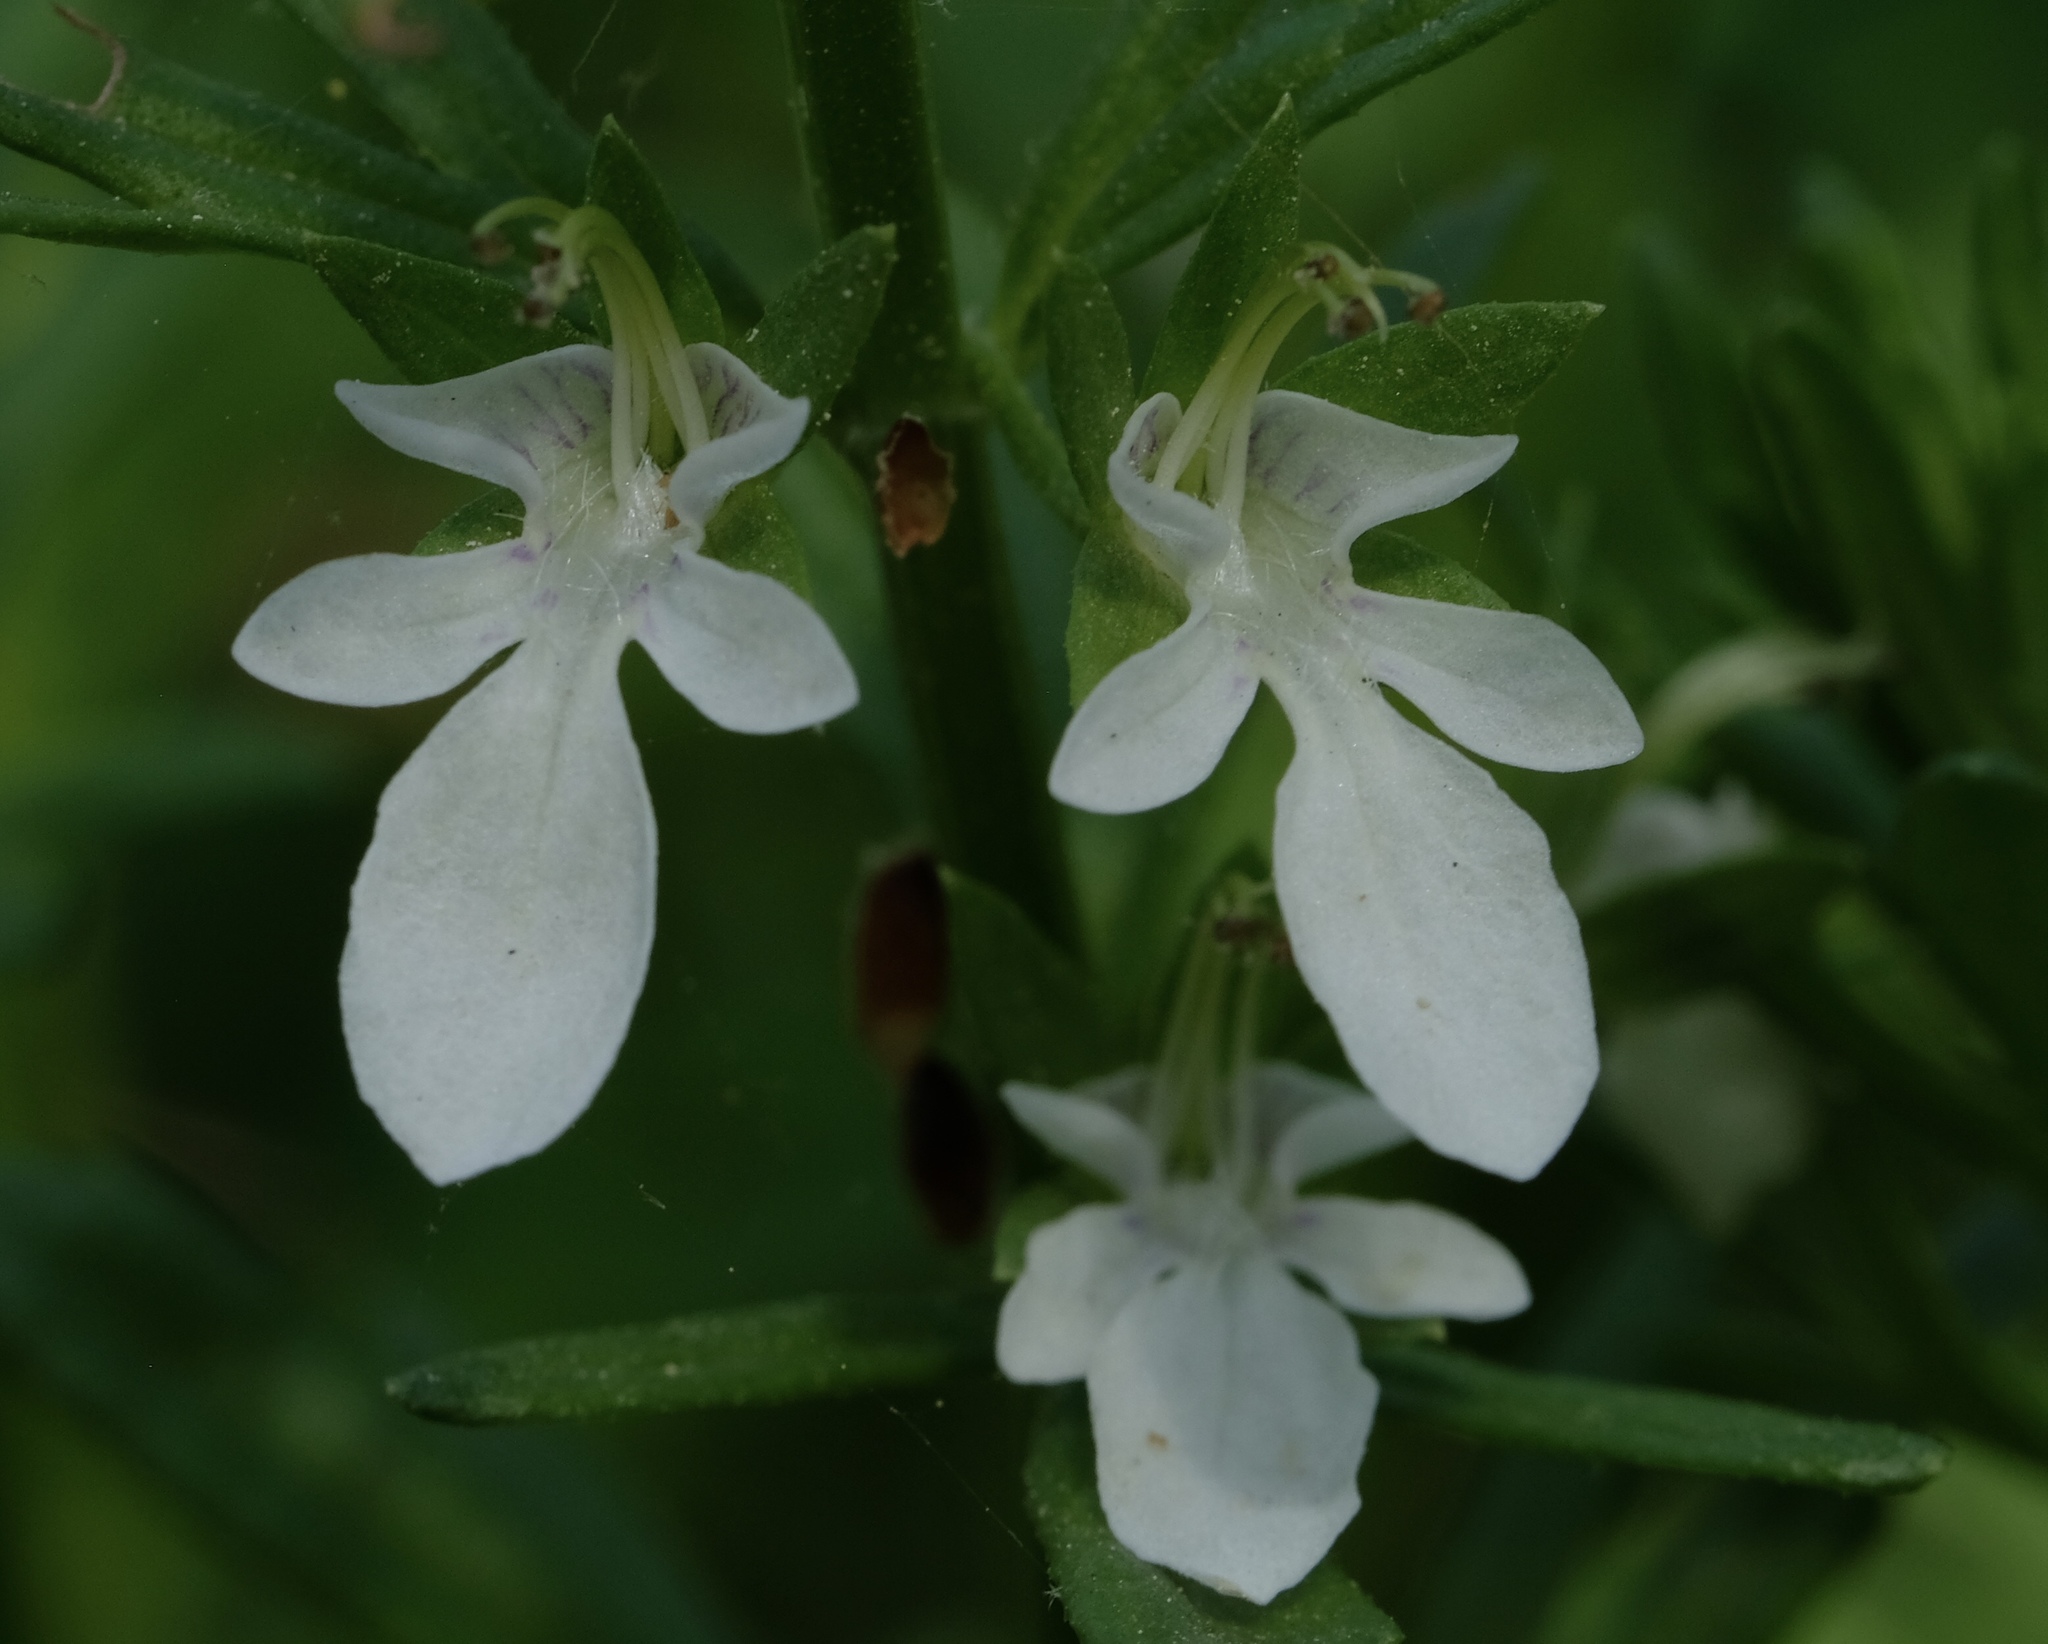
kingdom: Plantae
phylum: Tracheophyta
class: Magnoliopsida
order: Lamiales
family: Lamiaceae
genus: Teucrium
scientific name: Teucrium cubense
